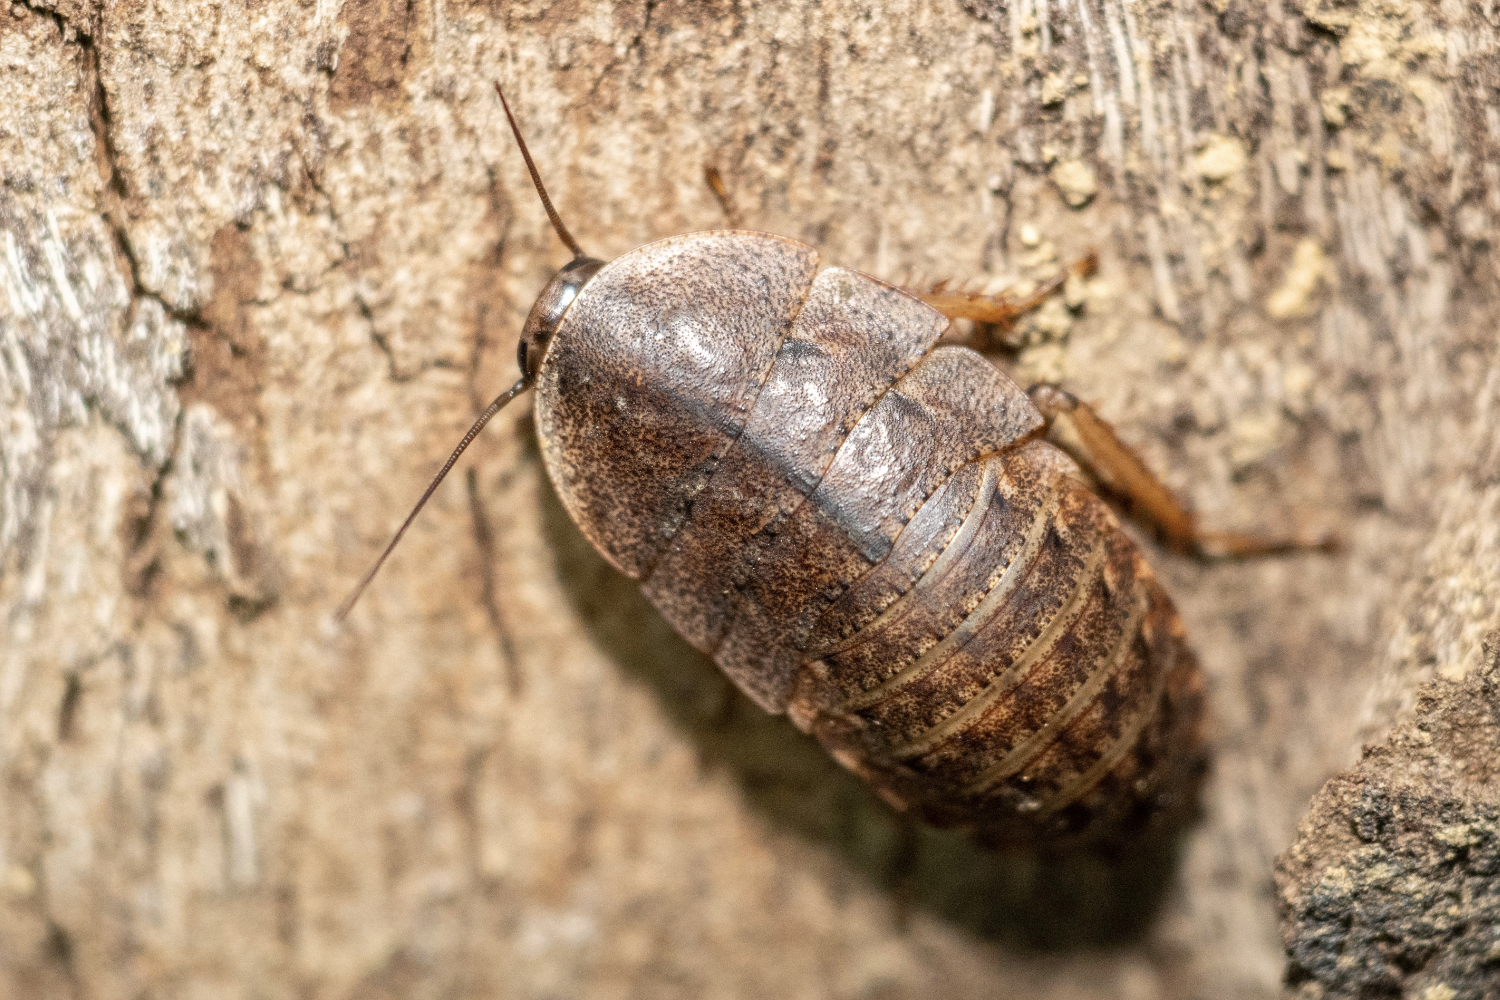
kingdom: Animalia
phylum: Arthropoda
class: Insecta
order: Blattodea
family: Blaberidae
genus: Opisthoplatia
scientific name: Opisthoplatia orientalis
